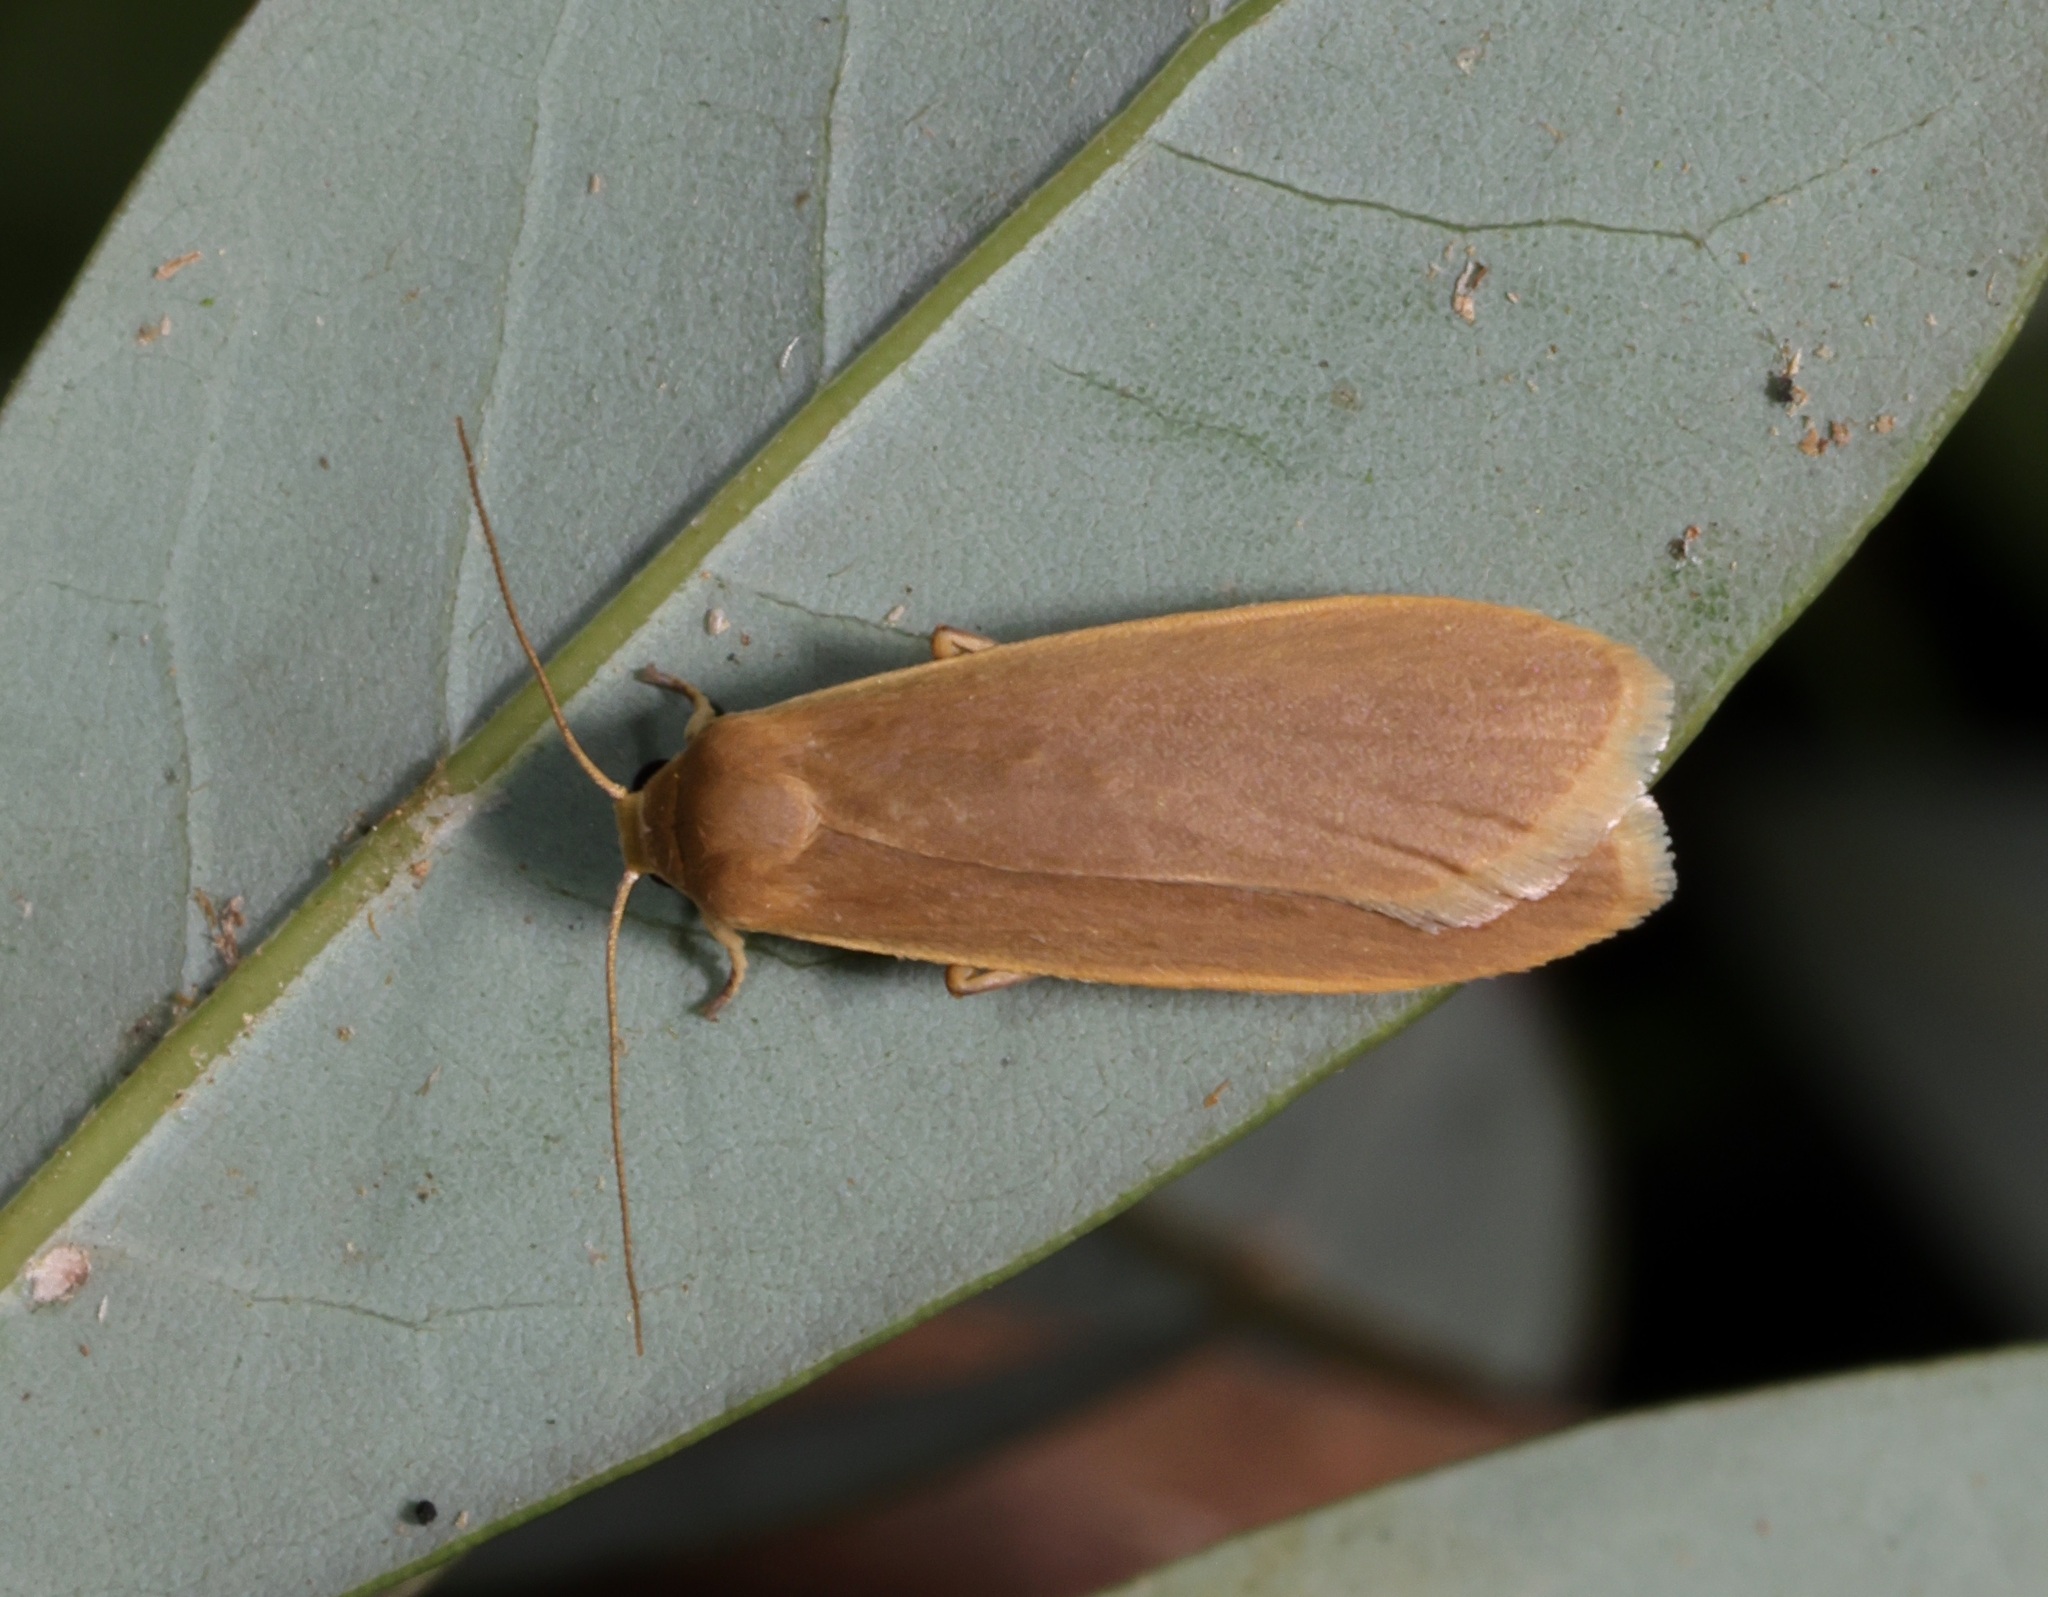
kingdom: Animalia
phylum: Arthropoda
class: Insecta
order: Lepidoptera
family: Erebidae
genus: Danielithosia
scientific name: Danielithosia immaculata
